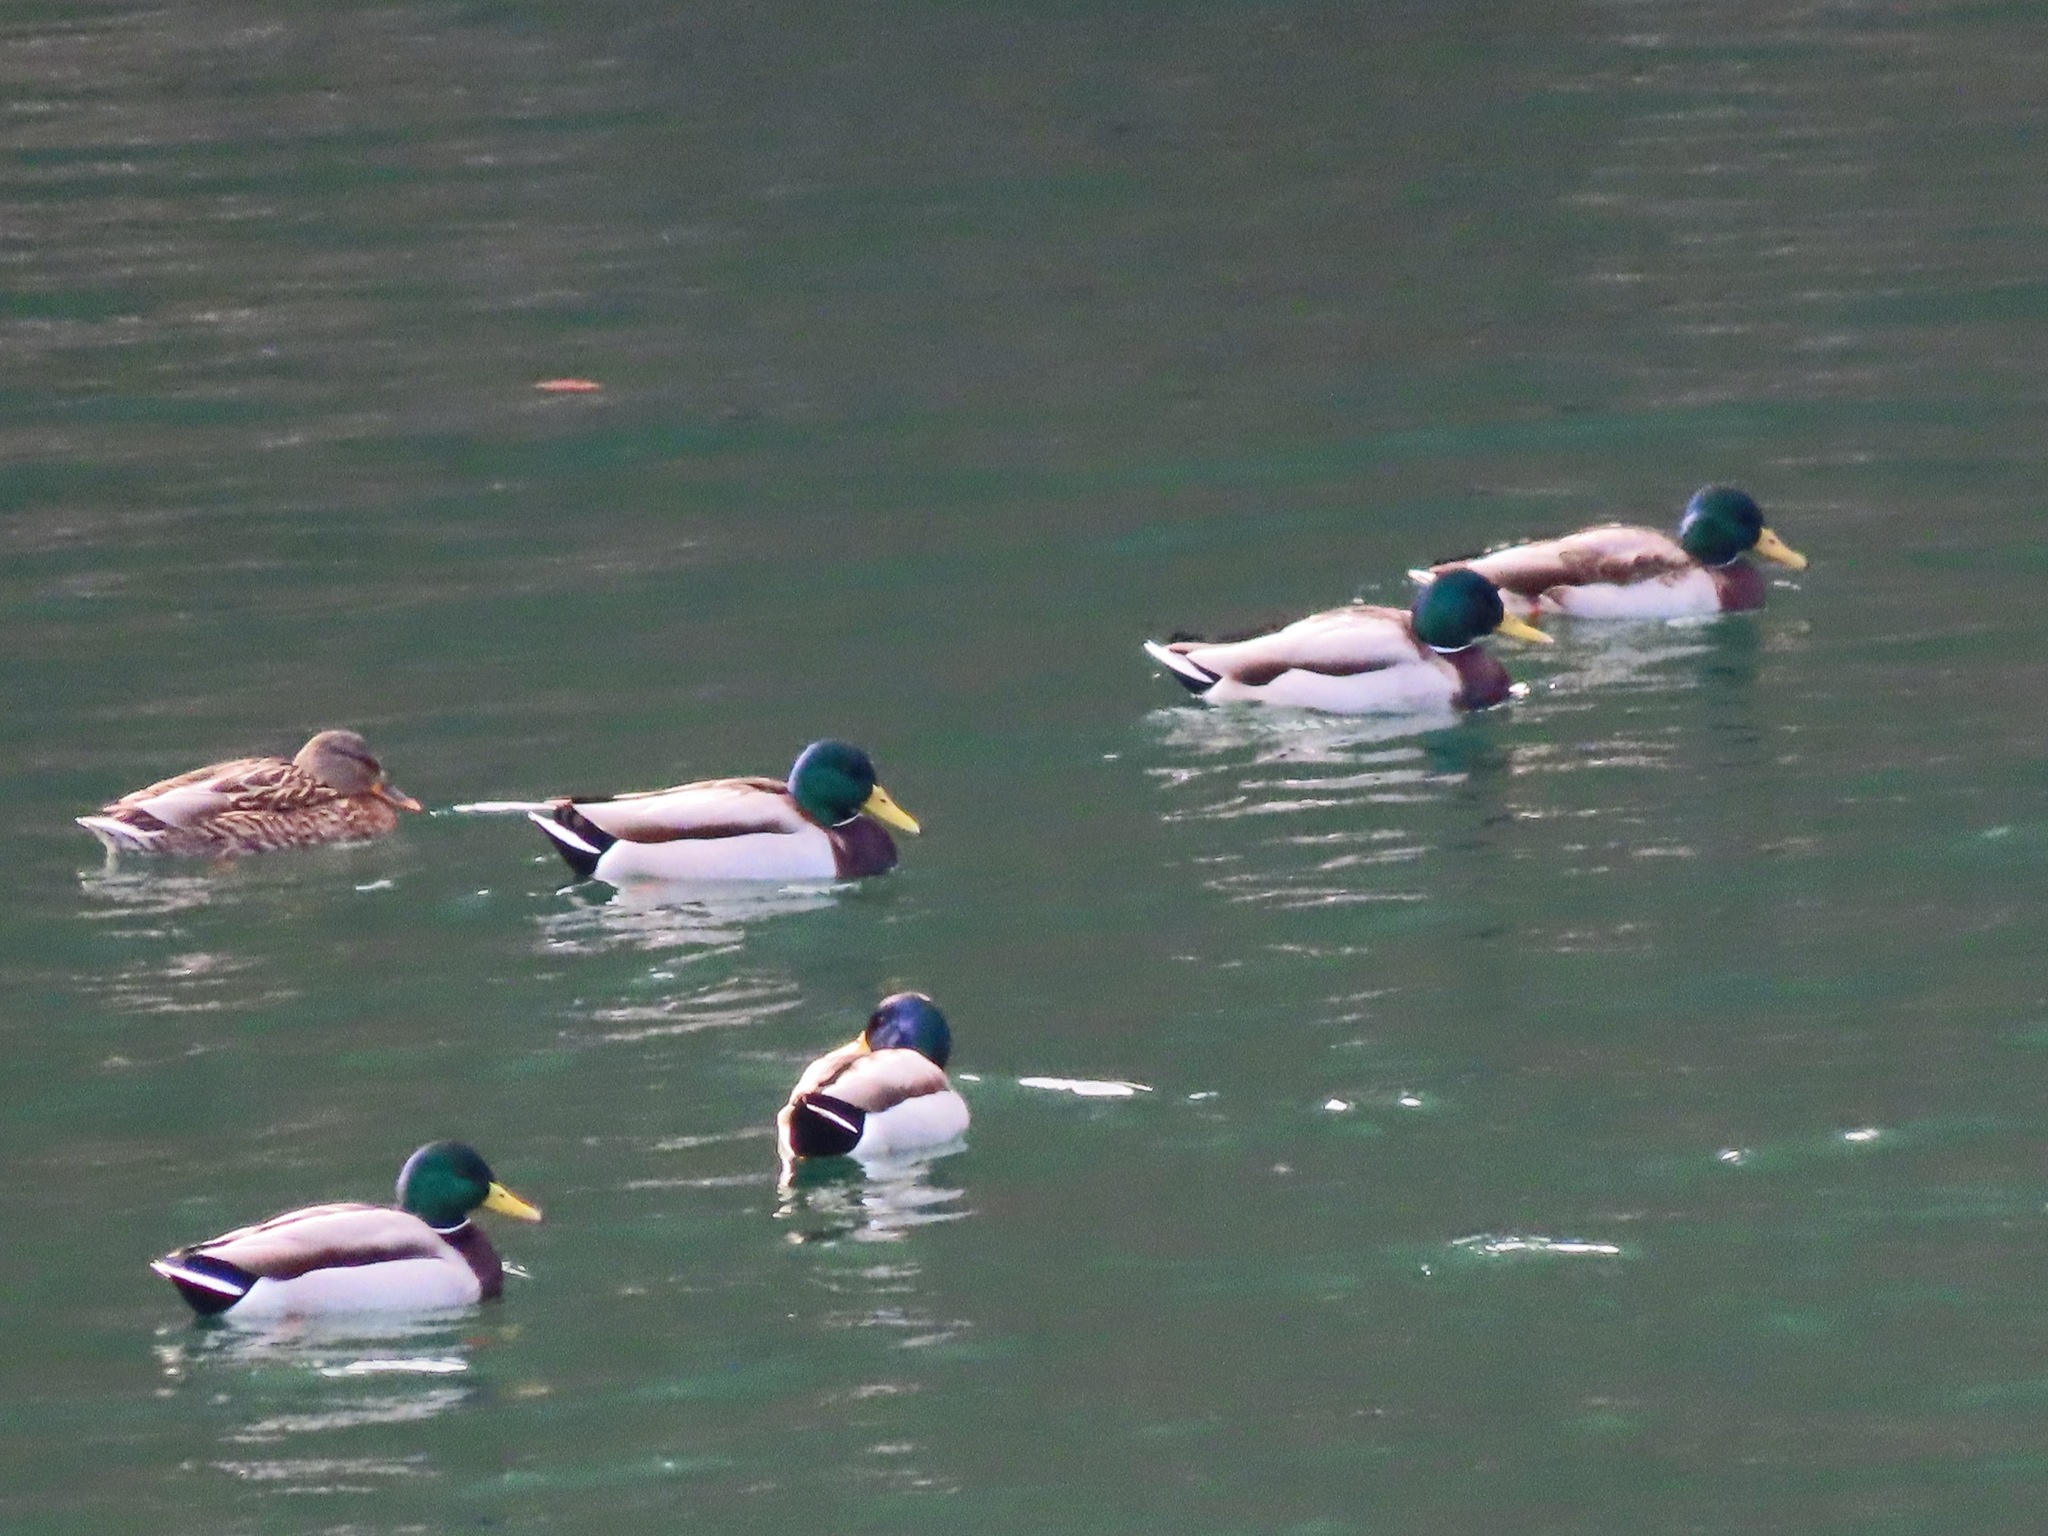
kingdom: Animalia
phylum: Chordata
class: Aves
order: Anseriformes
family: Anatidae
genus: Anas
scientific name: Anas platyrhynchos
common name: Mallard
